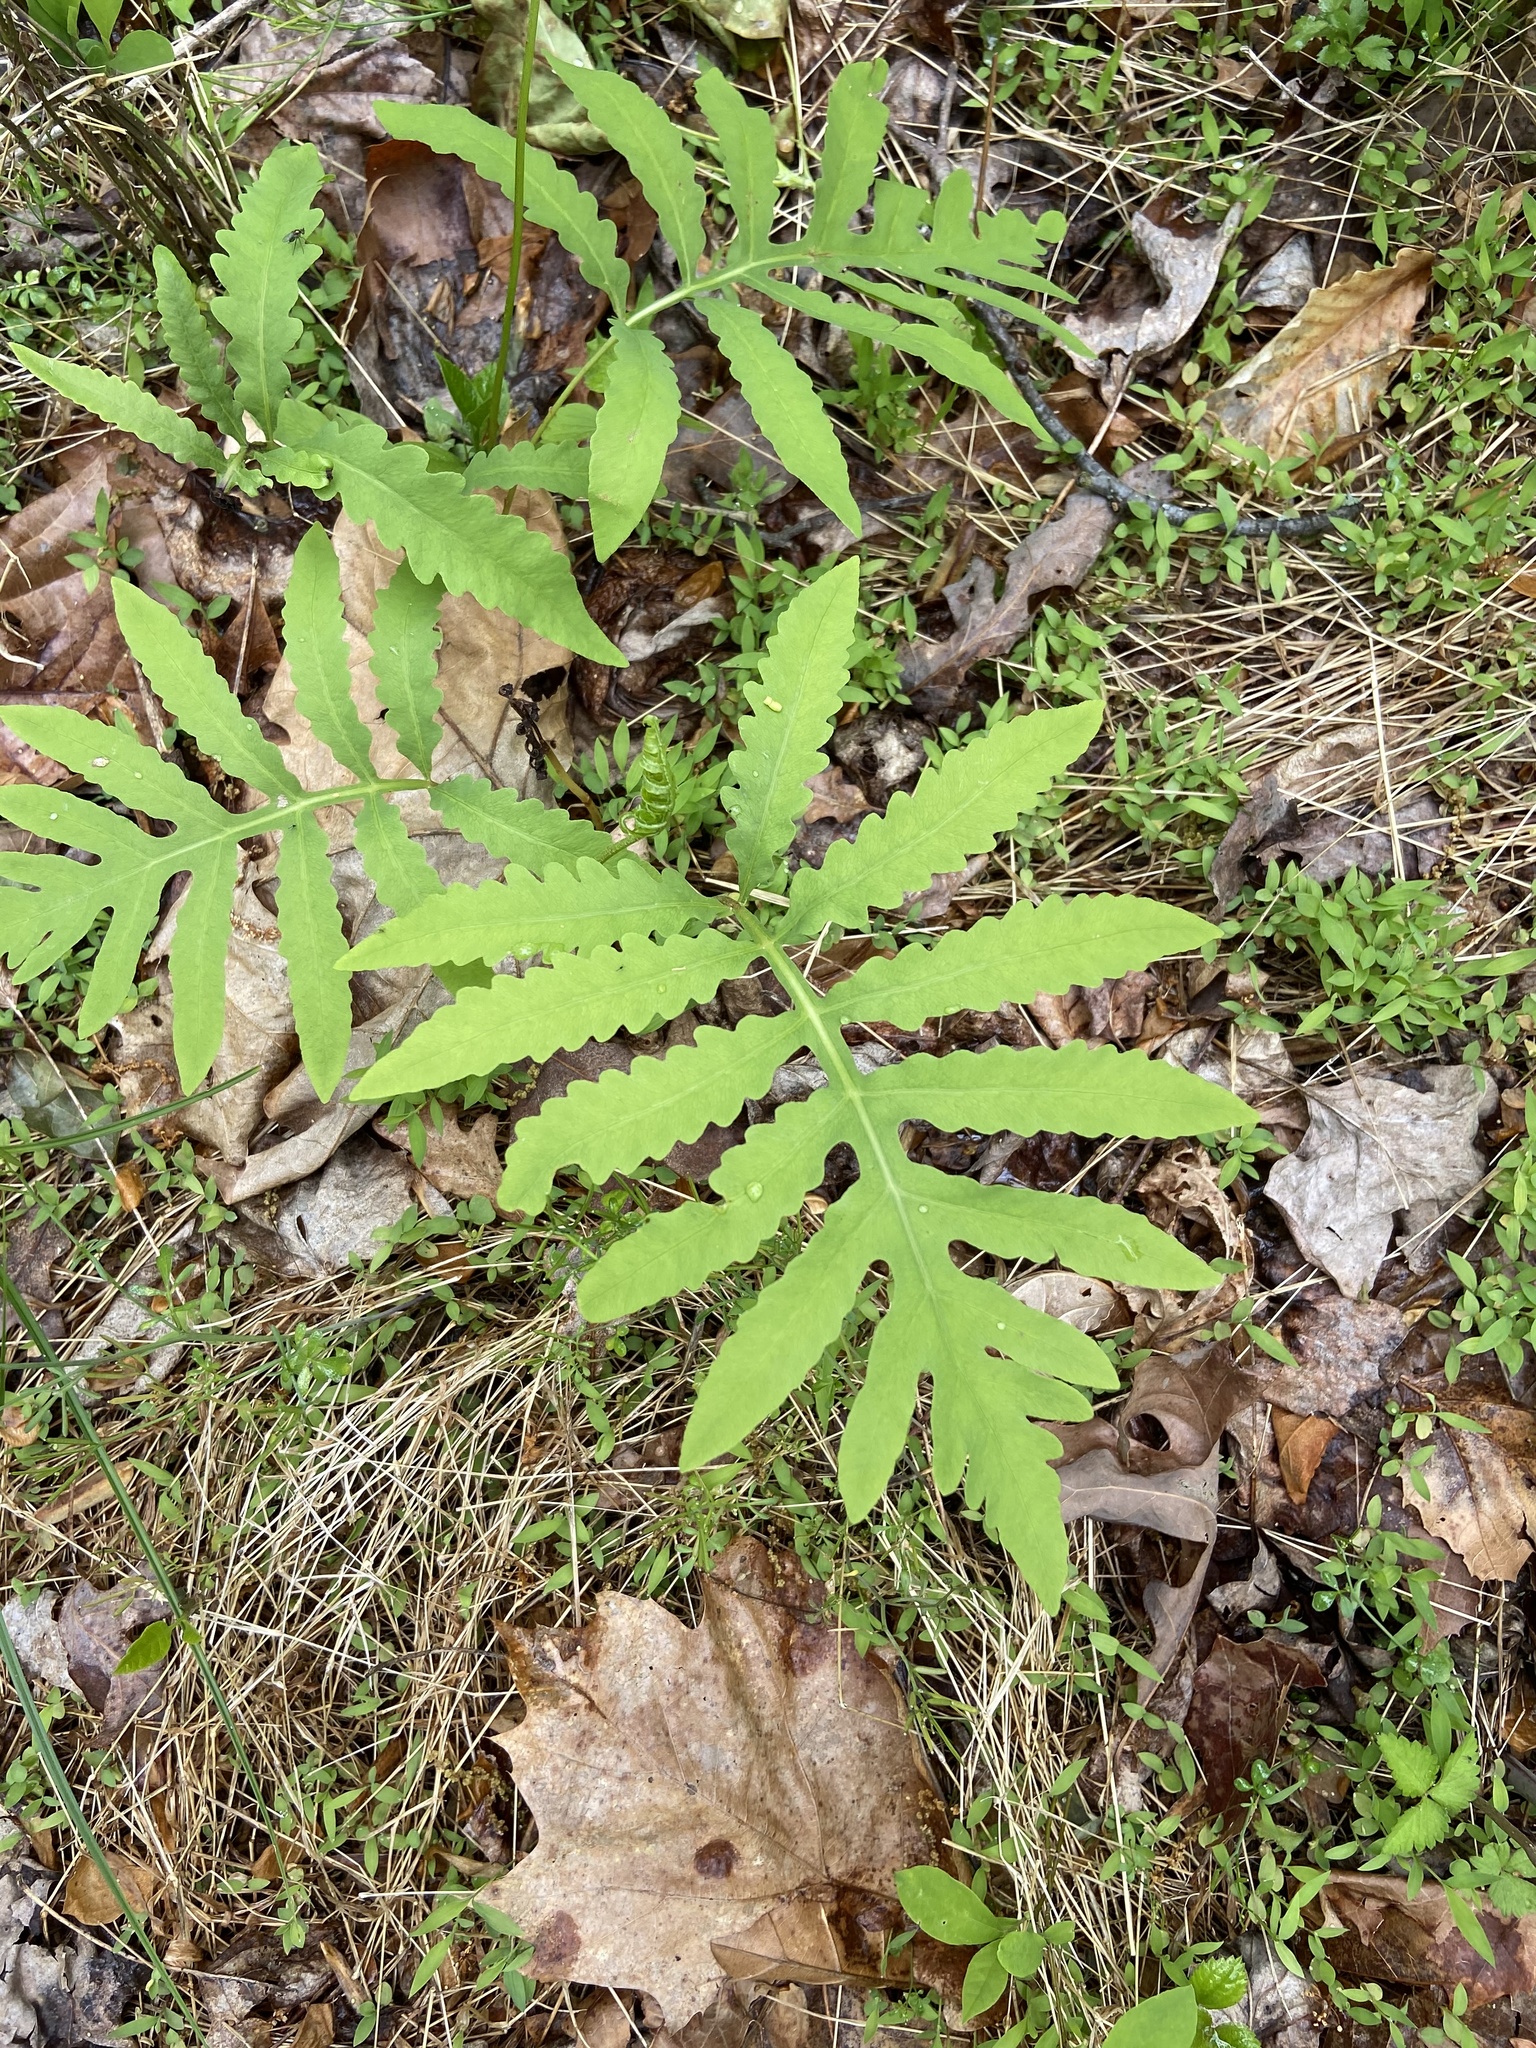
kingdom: Plantae
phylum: Tracheophyta
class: Polypodiopsida
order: Polypodiales
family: Onocleaceae
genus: Onoclea
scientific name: Onoclea sensibilis
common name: Sensitive fern
